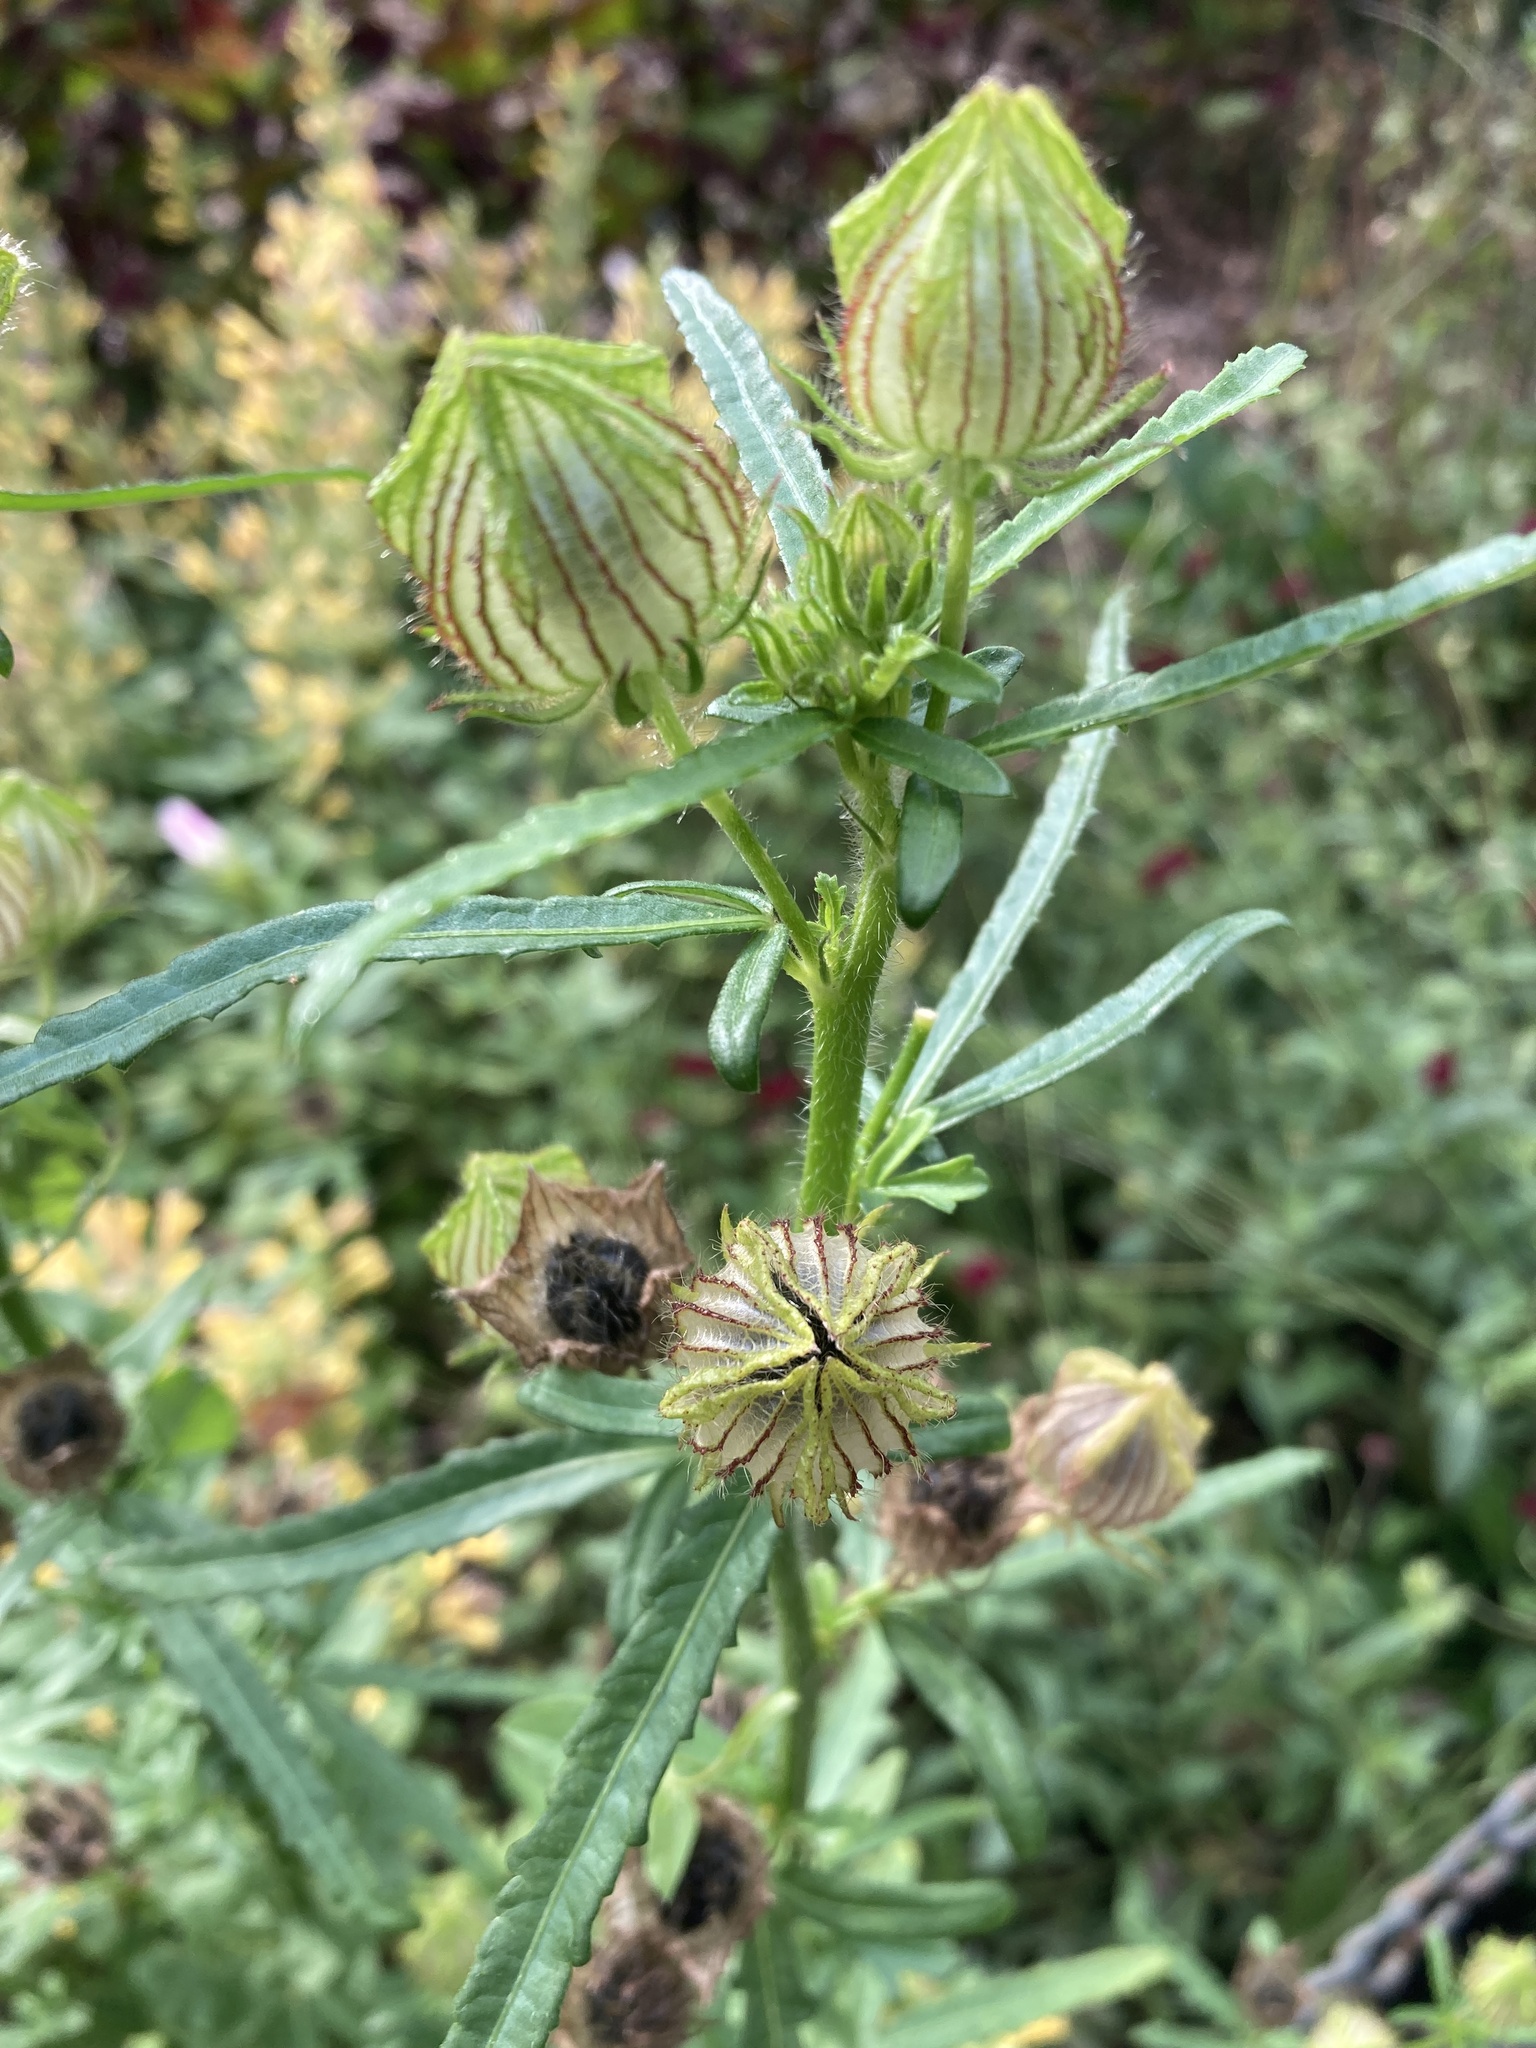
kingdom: Plantae
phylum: Tracheophyta
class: Magnoliopsida
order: Malvales
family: Malvaceae
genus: Hibiscus
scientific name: Hibiscus trionum
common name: Bladder ketmia
